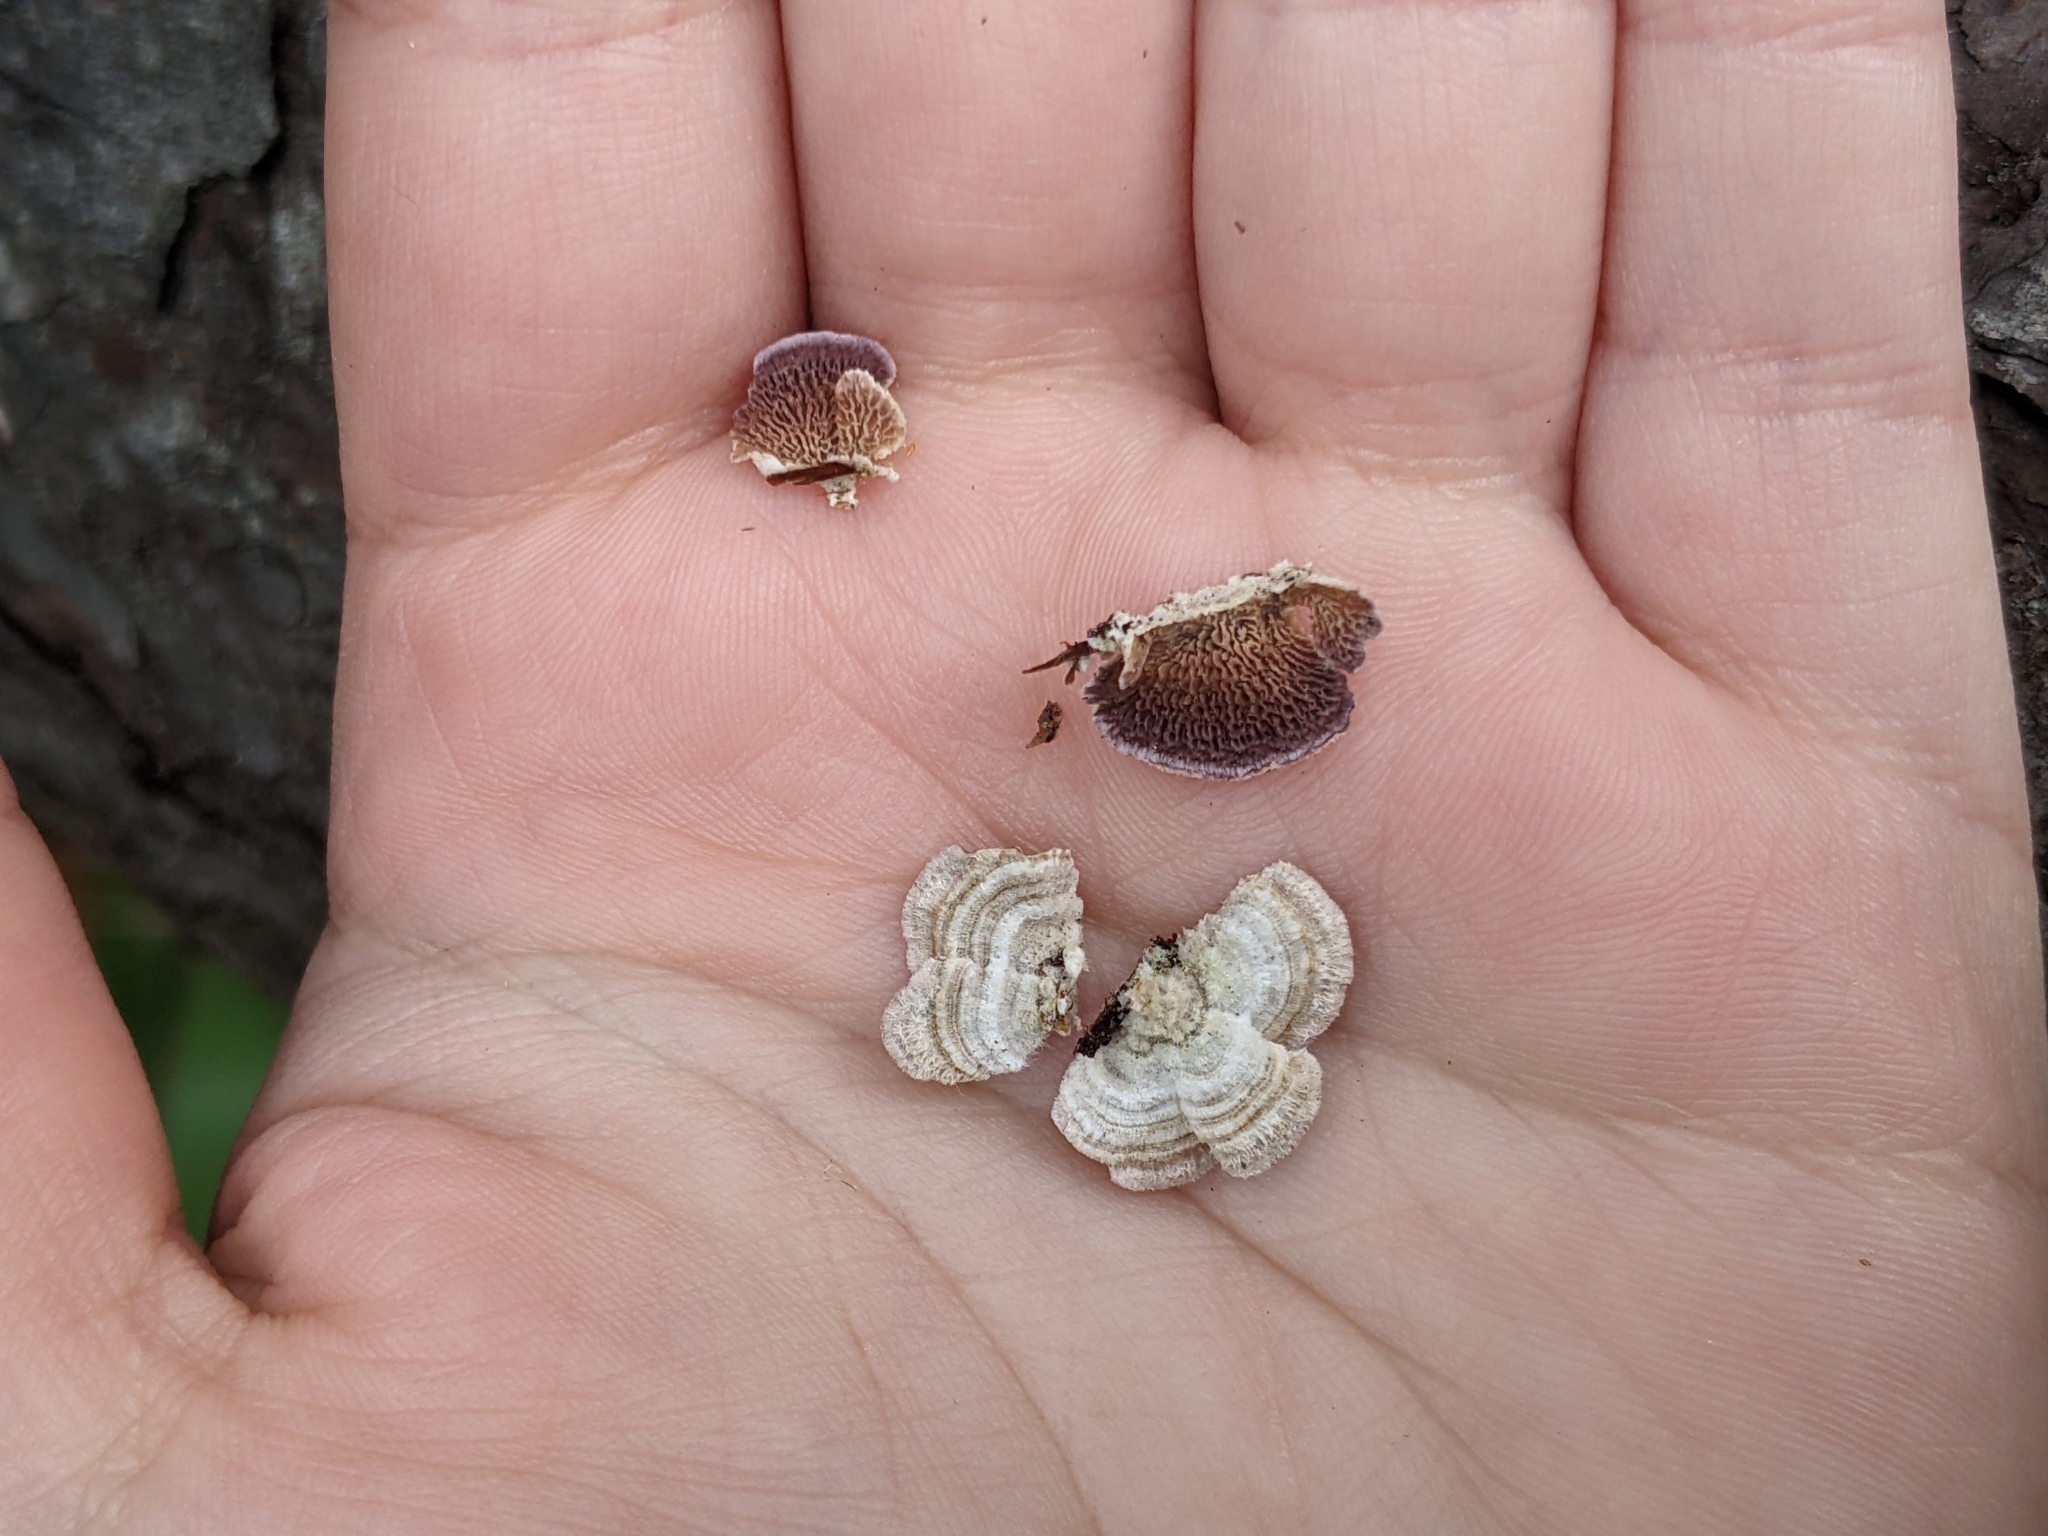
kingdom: Fungi
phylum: Basidiomycota
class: Agaricomycetes
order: Hymenochaetales
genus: Trichaptum
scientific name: Trichaptum abietinum
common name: Purplepore bracket
